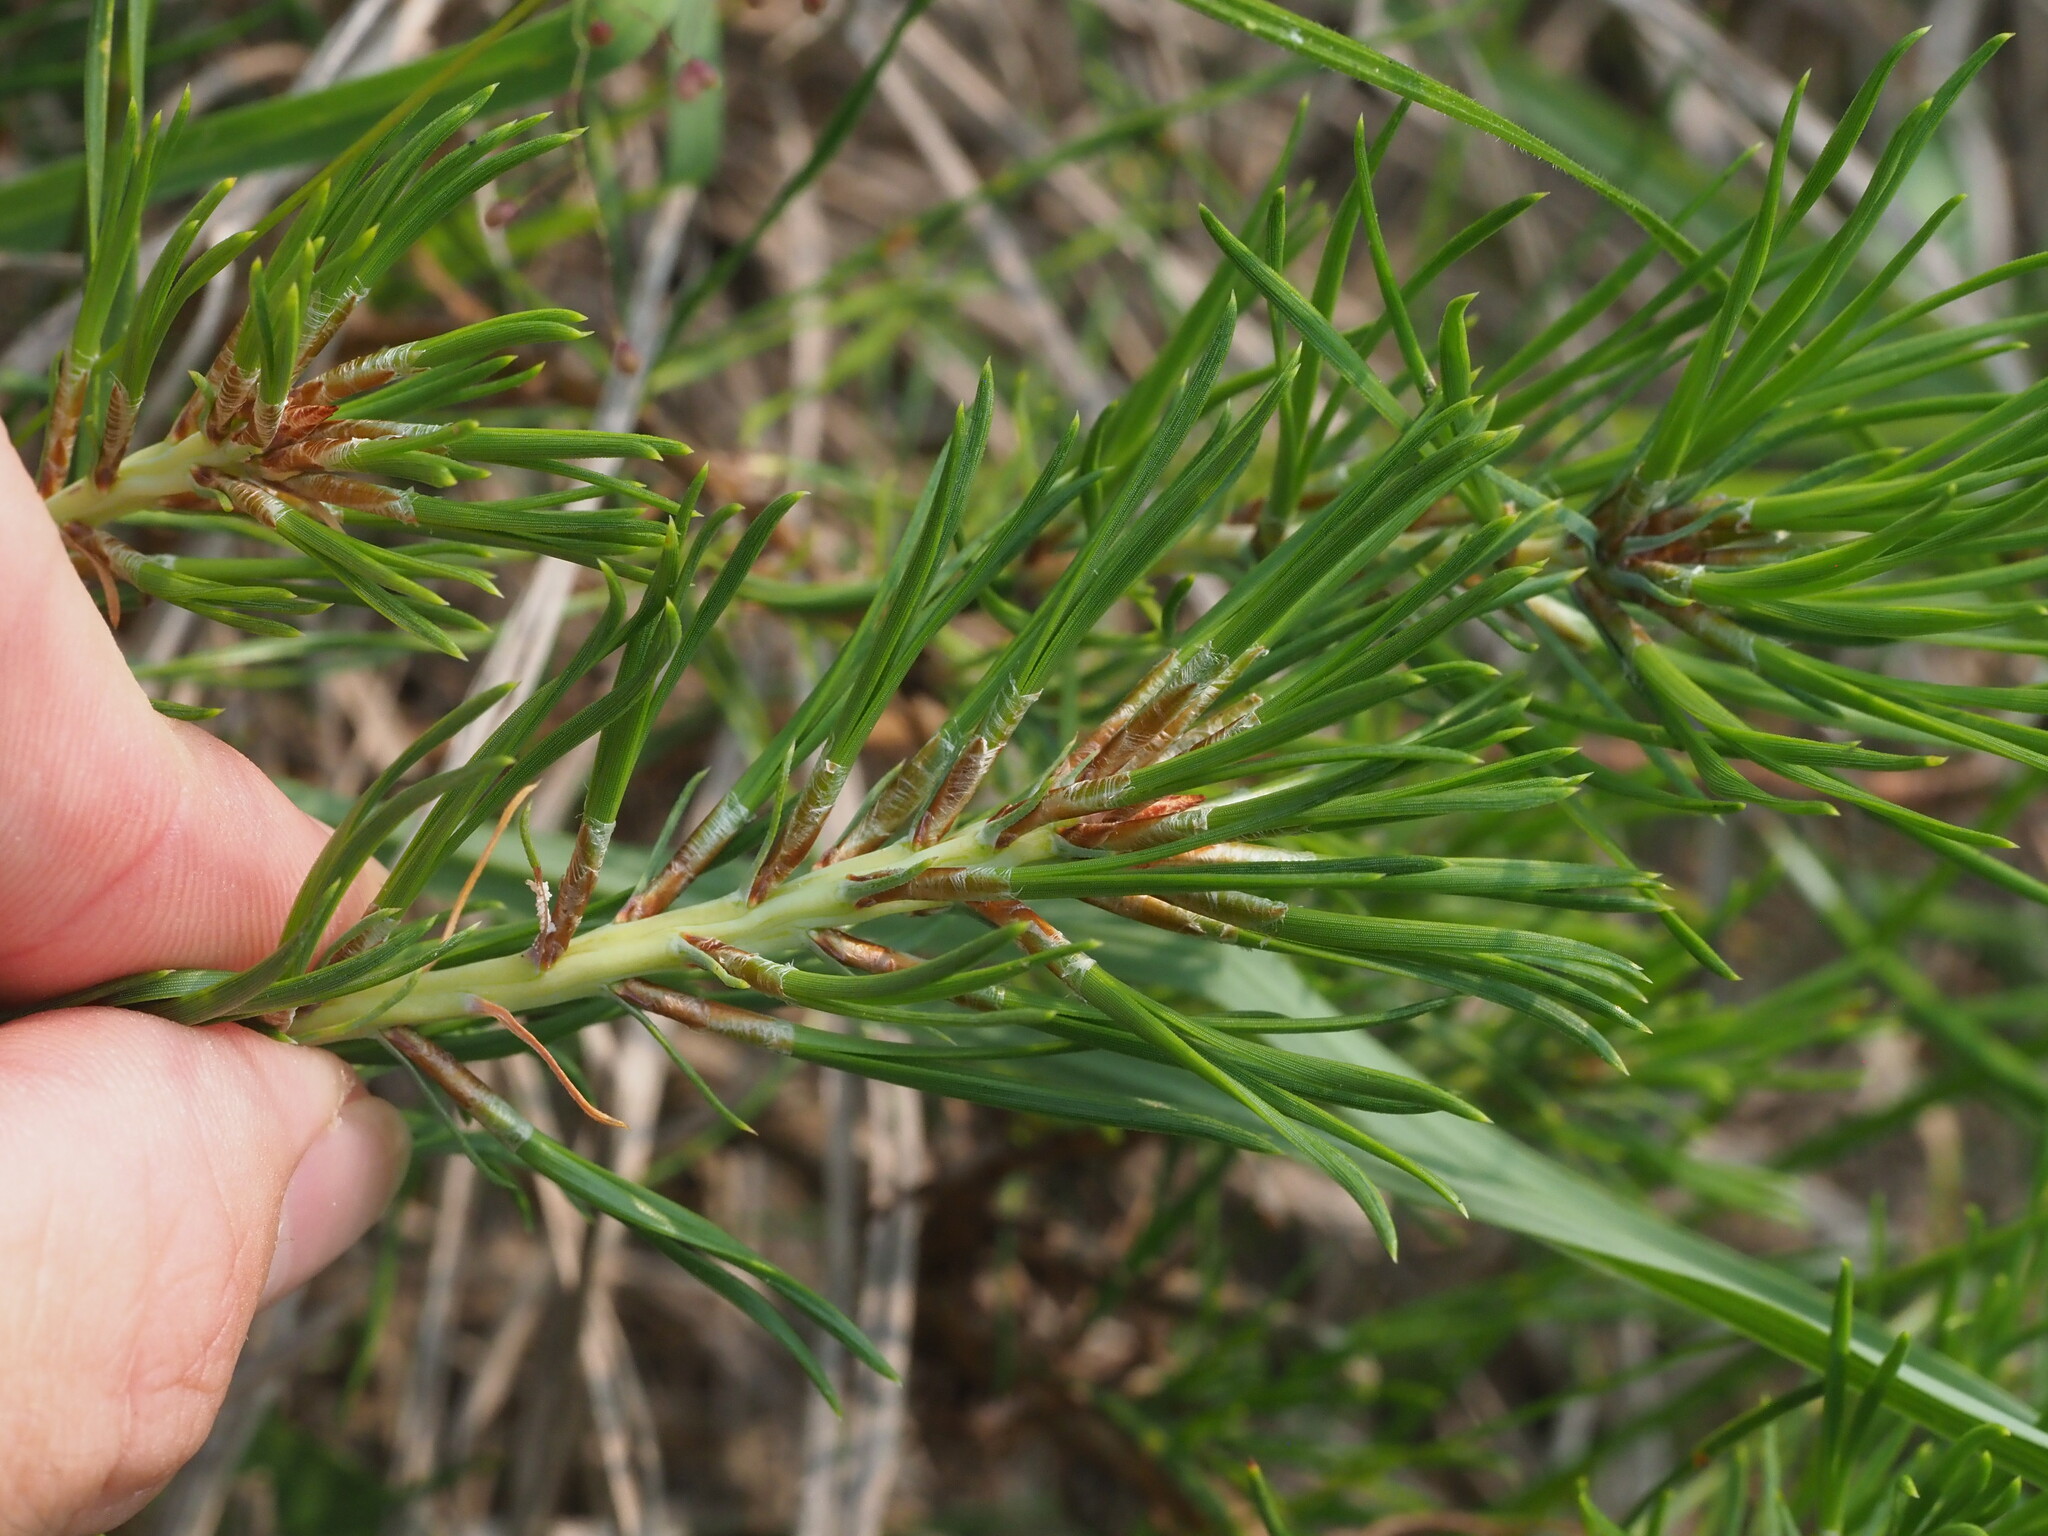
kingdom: Plantae
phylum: Tracheophyta
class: Pinopsida
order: Pinales
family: Pinaceae
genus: Pinus
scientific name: Pinus virginiana
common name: Scrub pine
